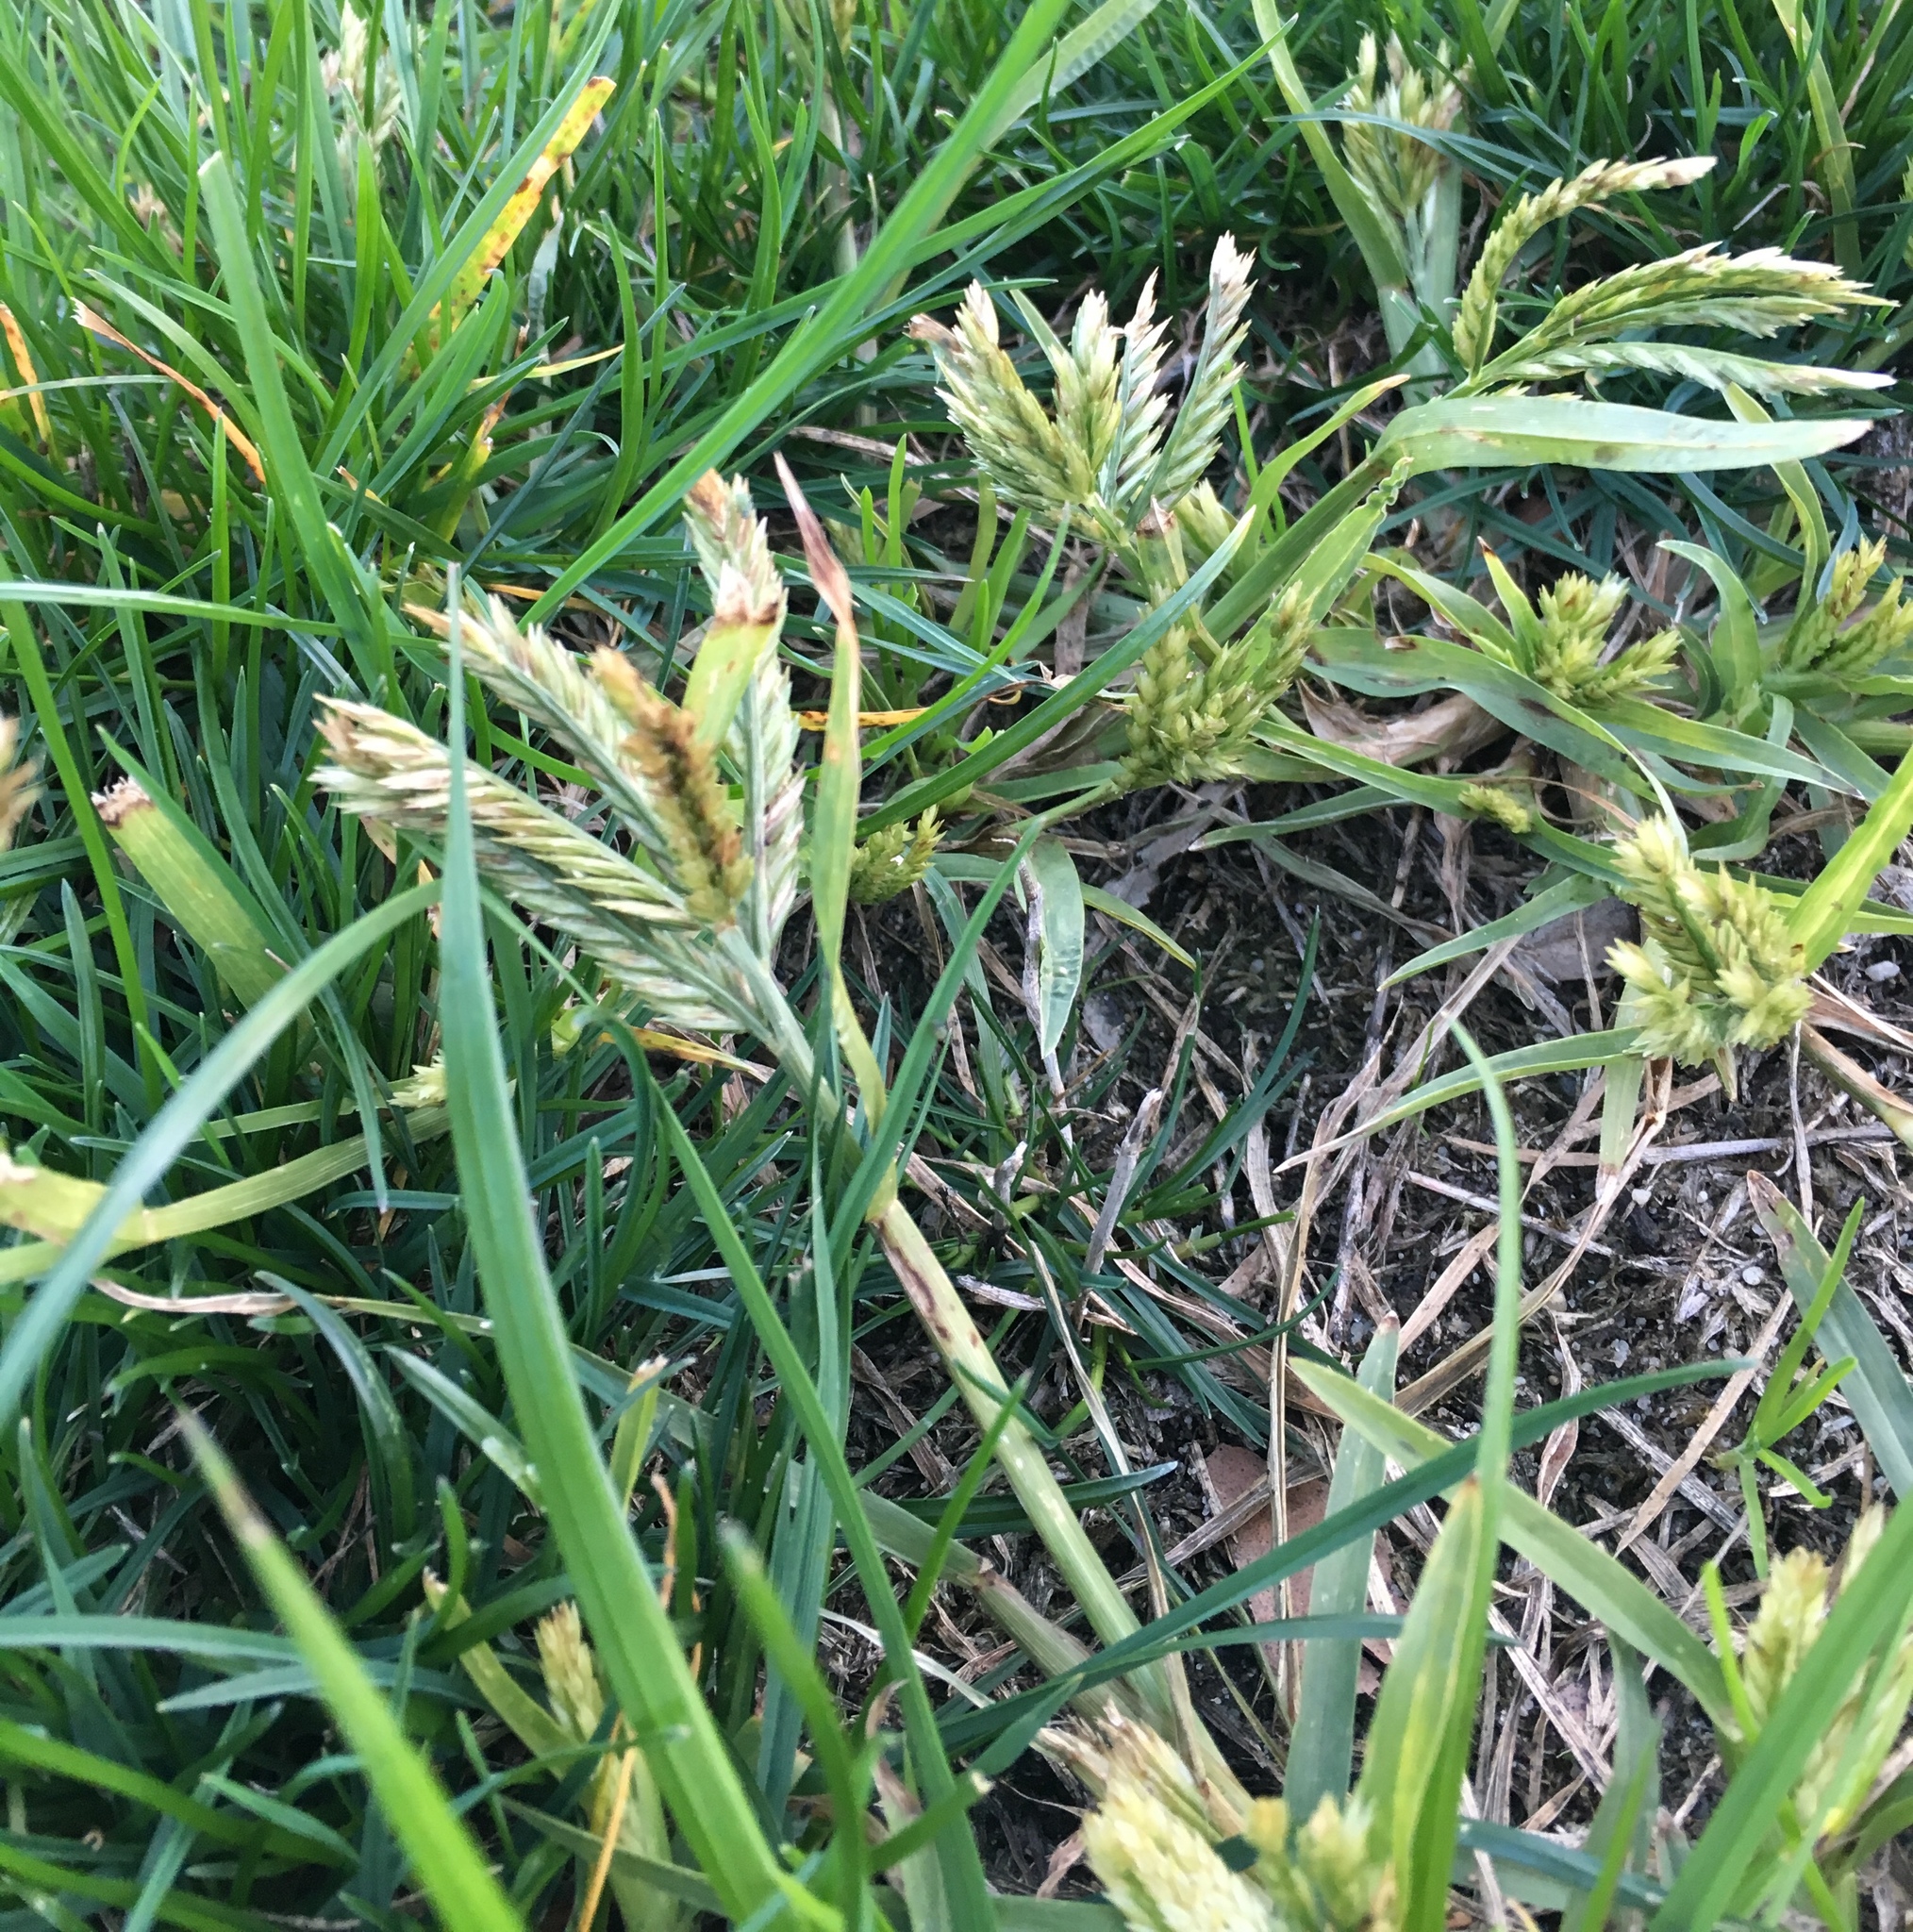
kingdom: Plantae
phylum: Tracheophyta
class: Liliopsida
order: Poales
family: Poaceae
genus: Eleusine
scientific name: Eleusine indica
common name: Yard-grass
